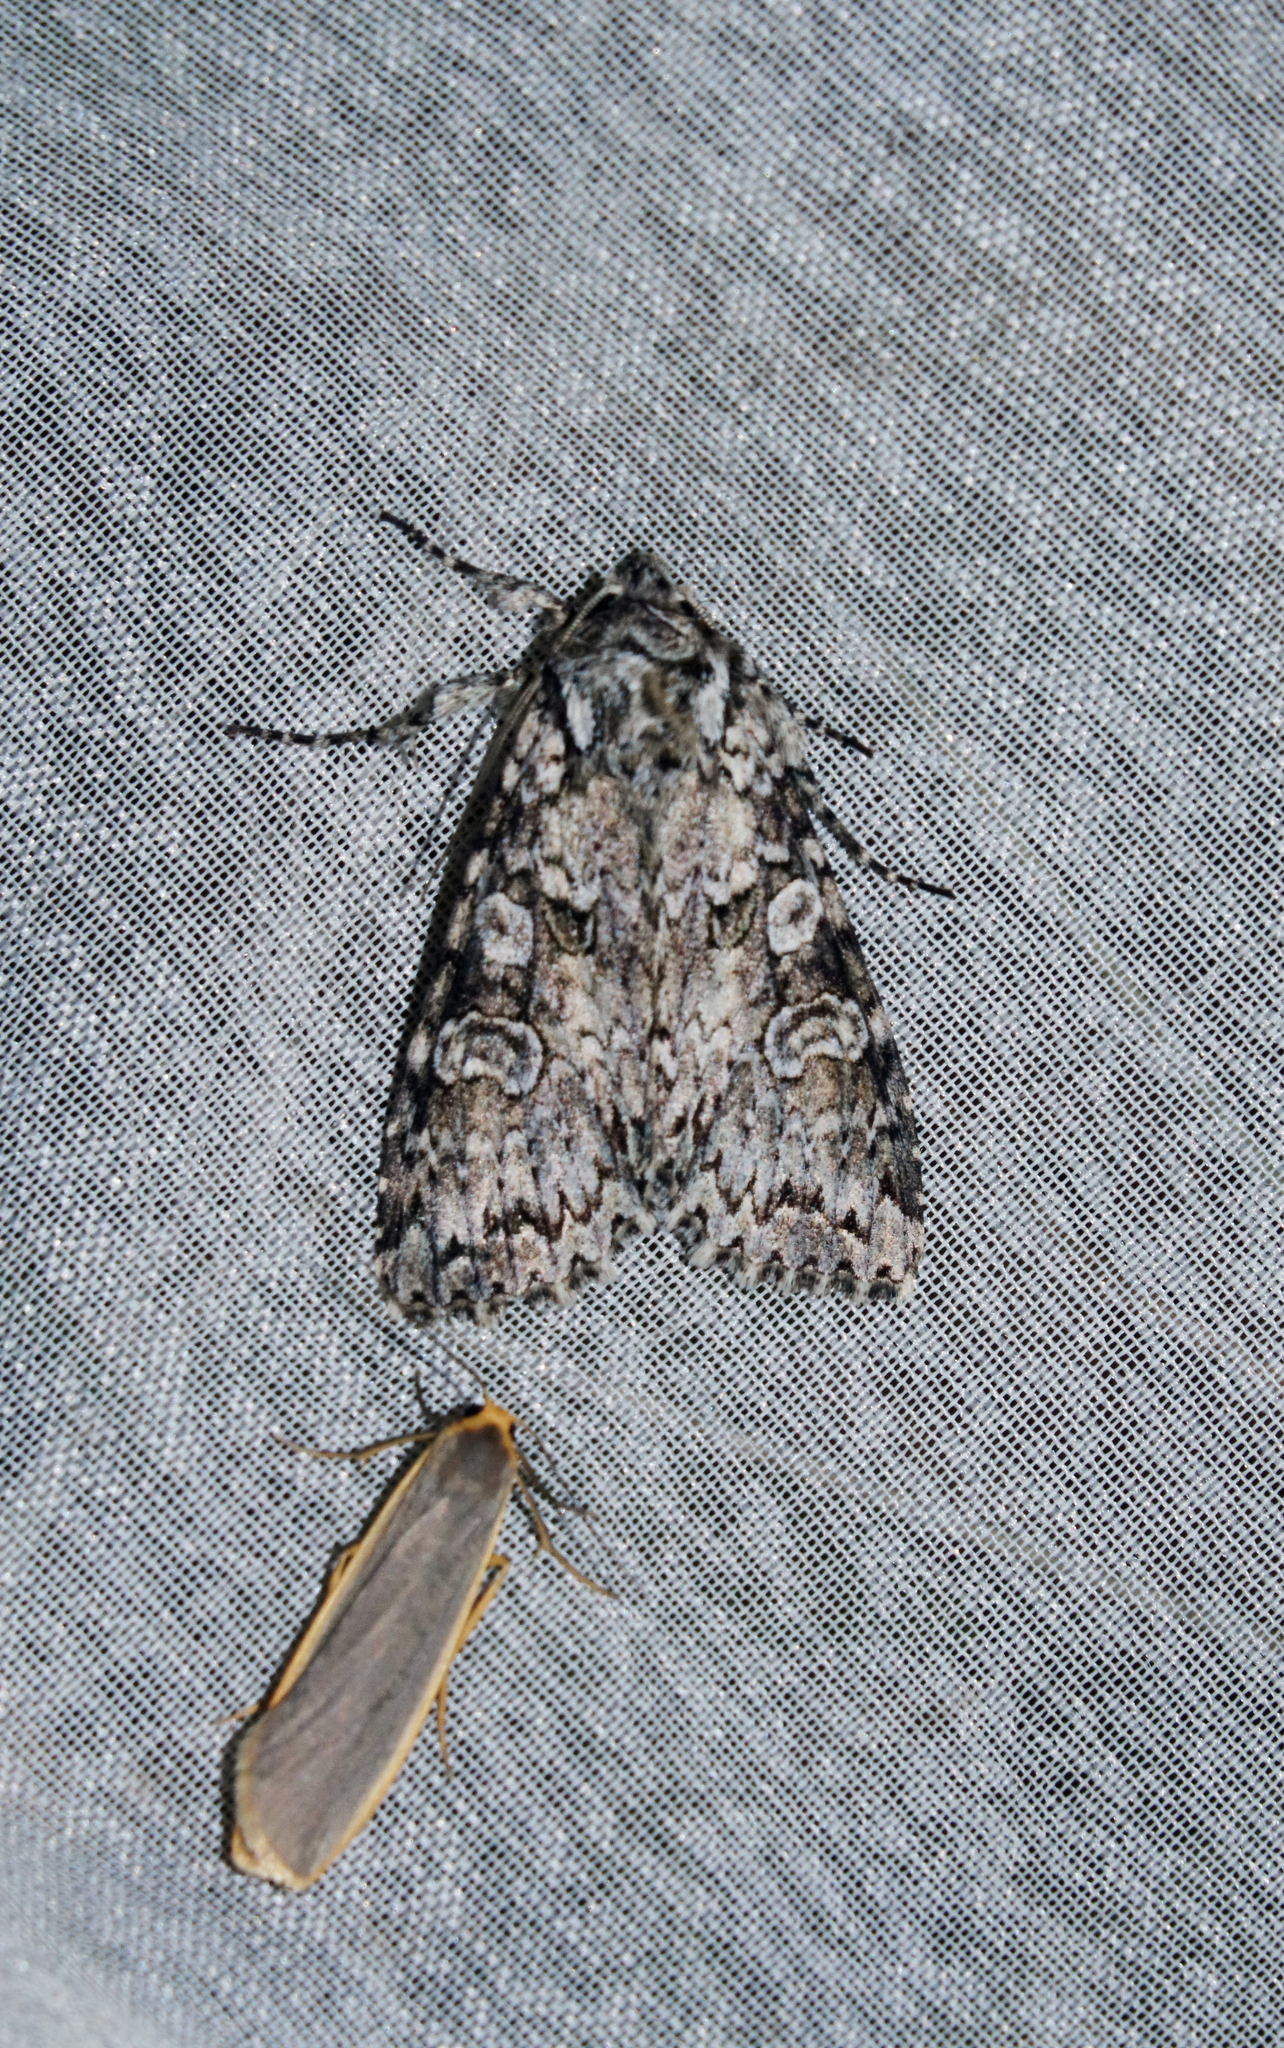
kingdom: Animalia
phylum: Arthropoda
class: Insecta
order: Lepidoptera
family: Noctuidae
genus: Polia
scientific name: Polia nebulosa
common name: Grey arches
